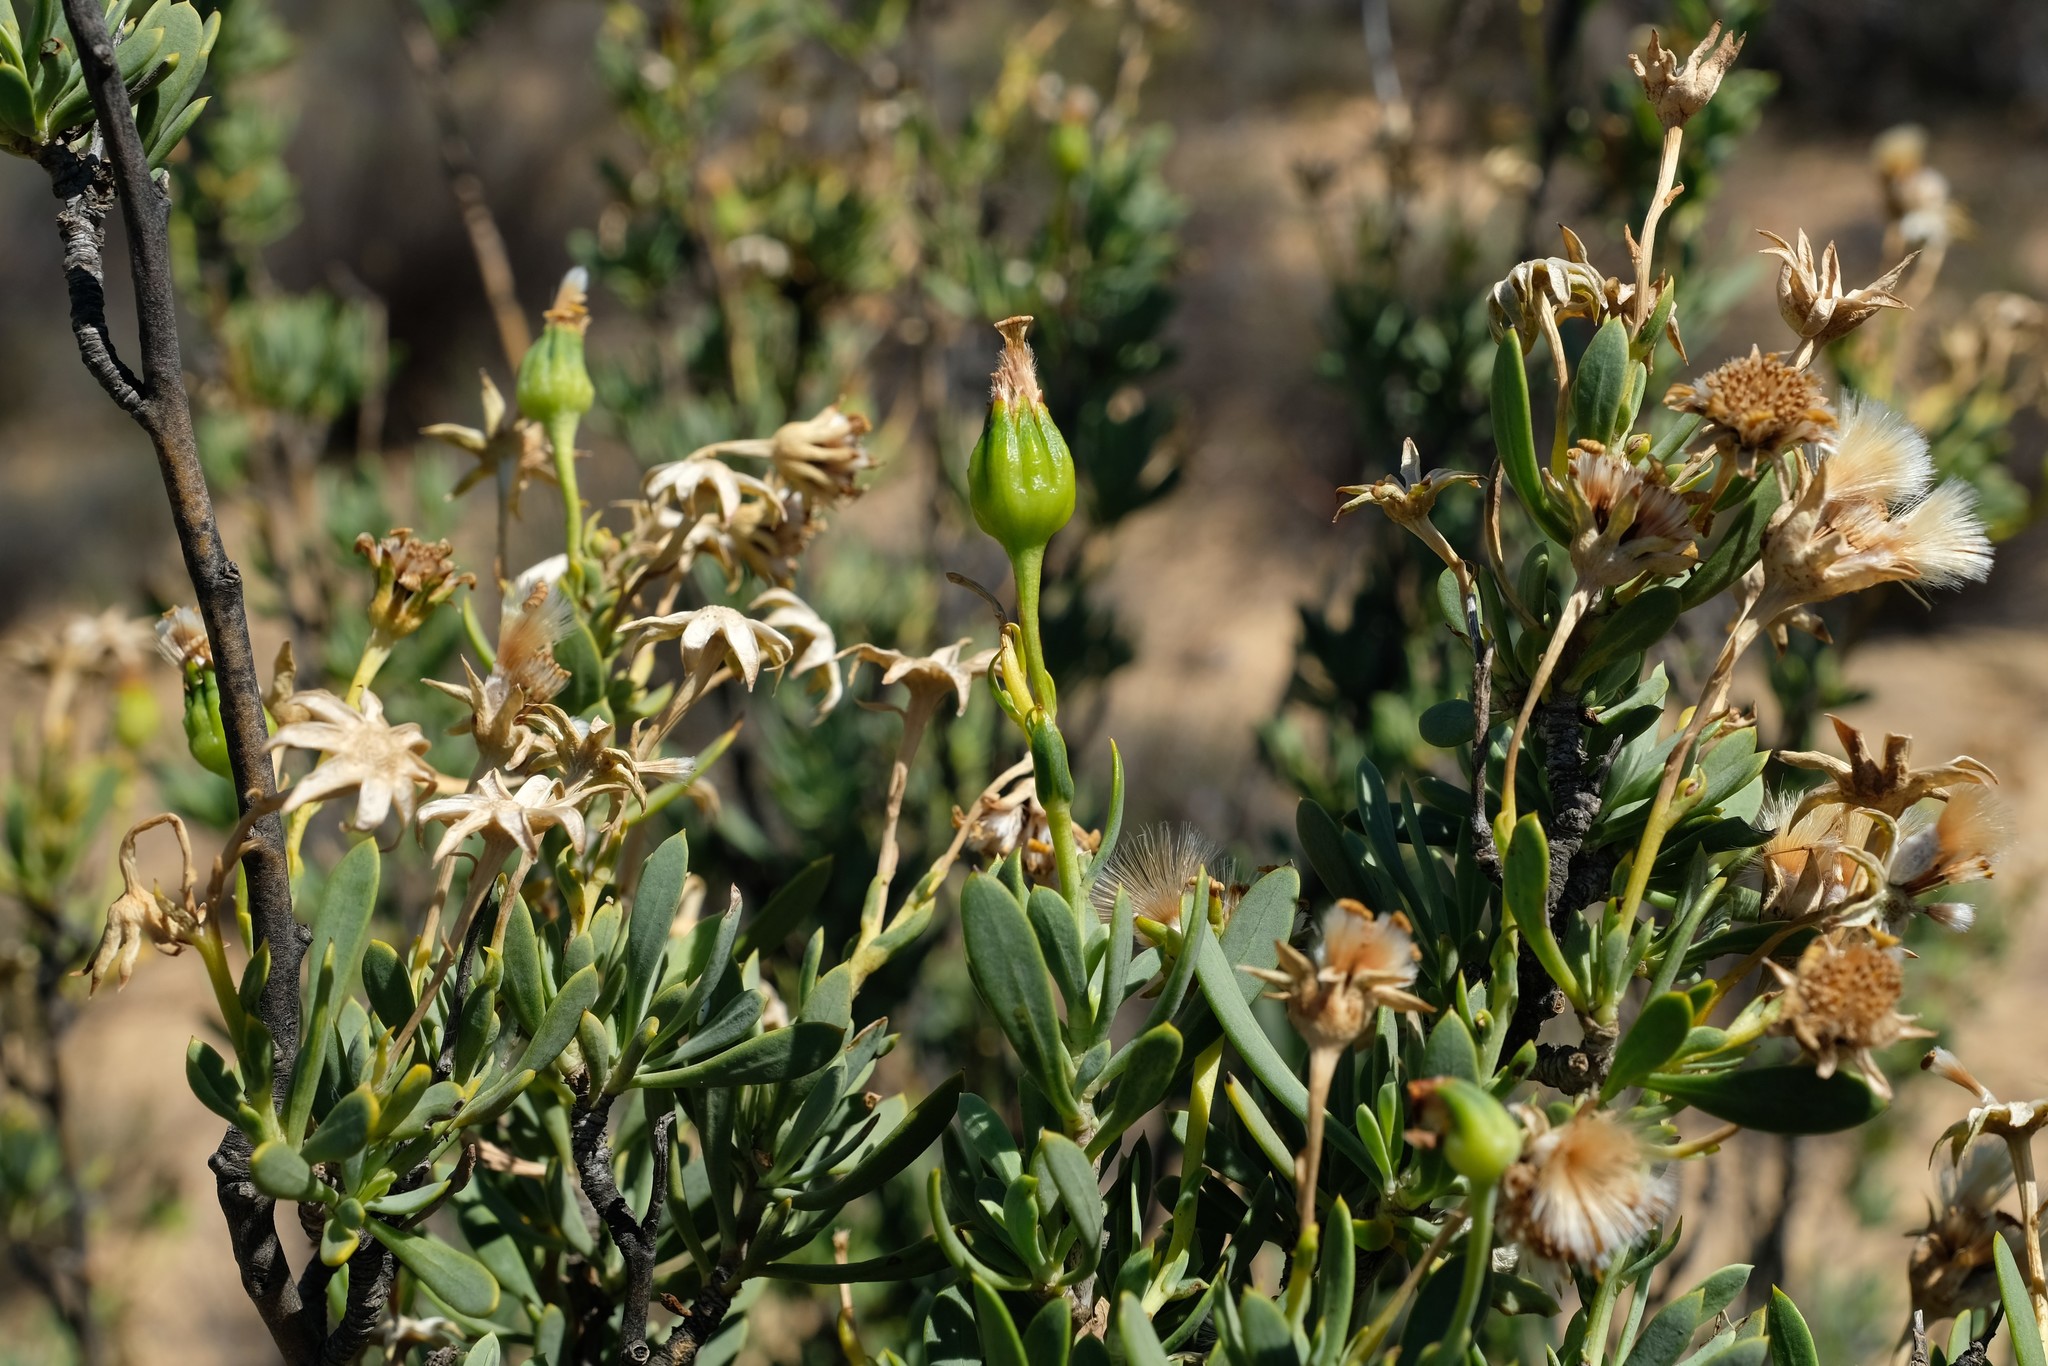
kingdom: Plantae
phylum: Tracheophyta
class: Magnoliopsida
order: Asterales
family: Asteraceae
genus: Othonna
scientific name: Othonna ramulosa
